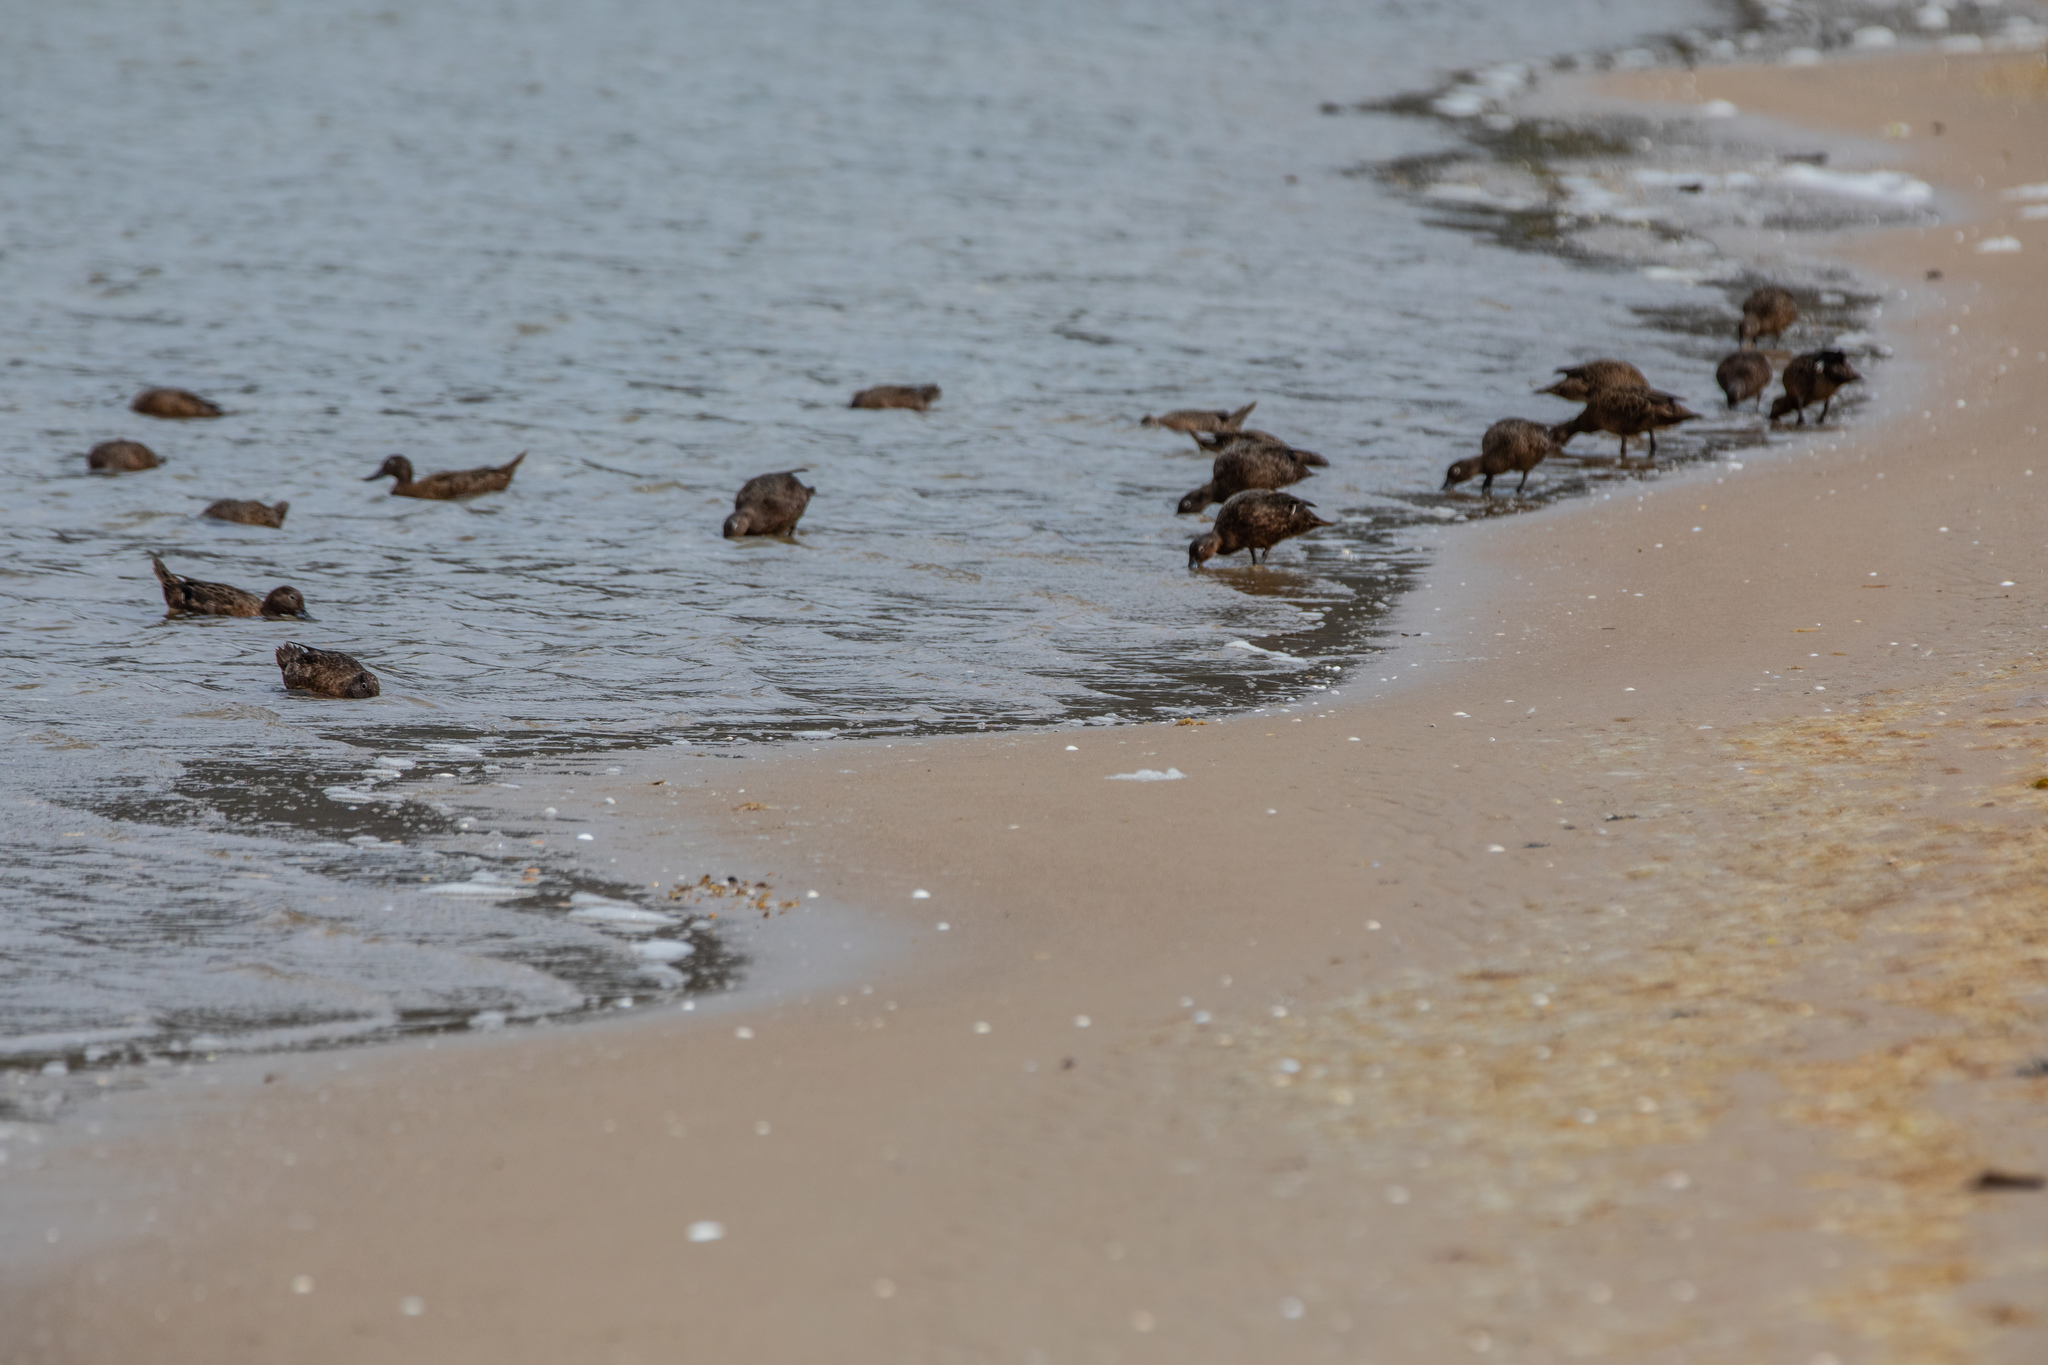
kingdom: Animalia
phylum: Chordata
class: Aves
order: Anseriformes
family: Anatidae
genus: Anas
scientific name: Anas chlorotis
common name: Brown teal
